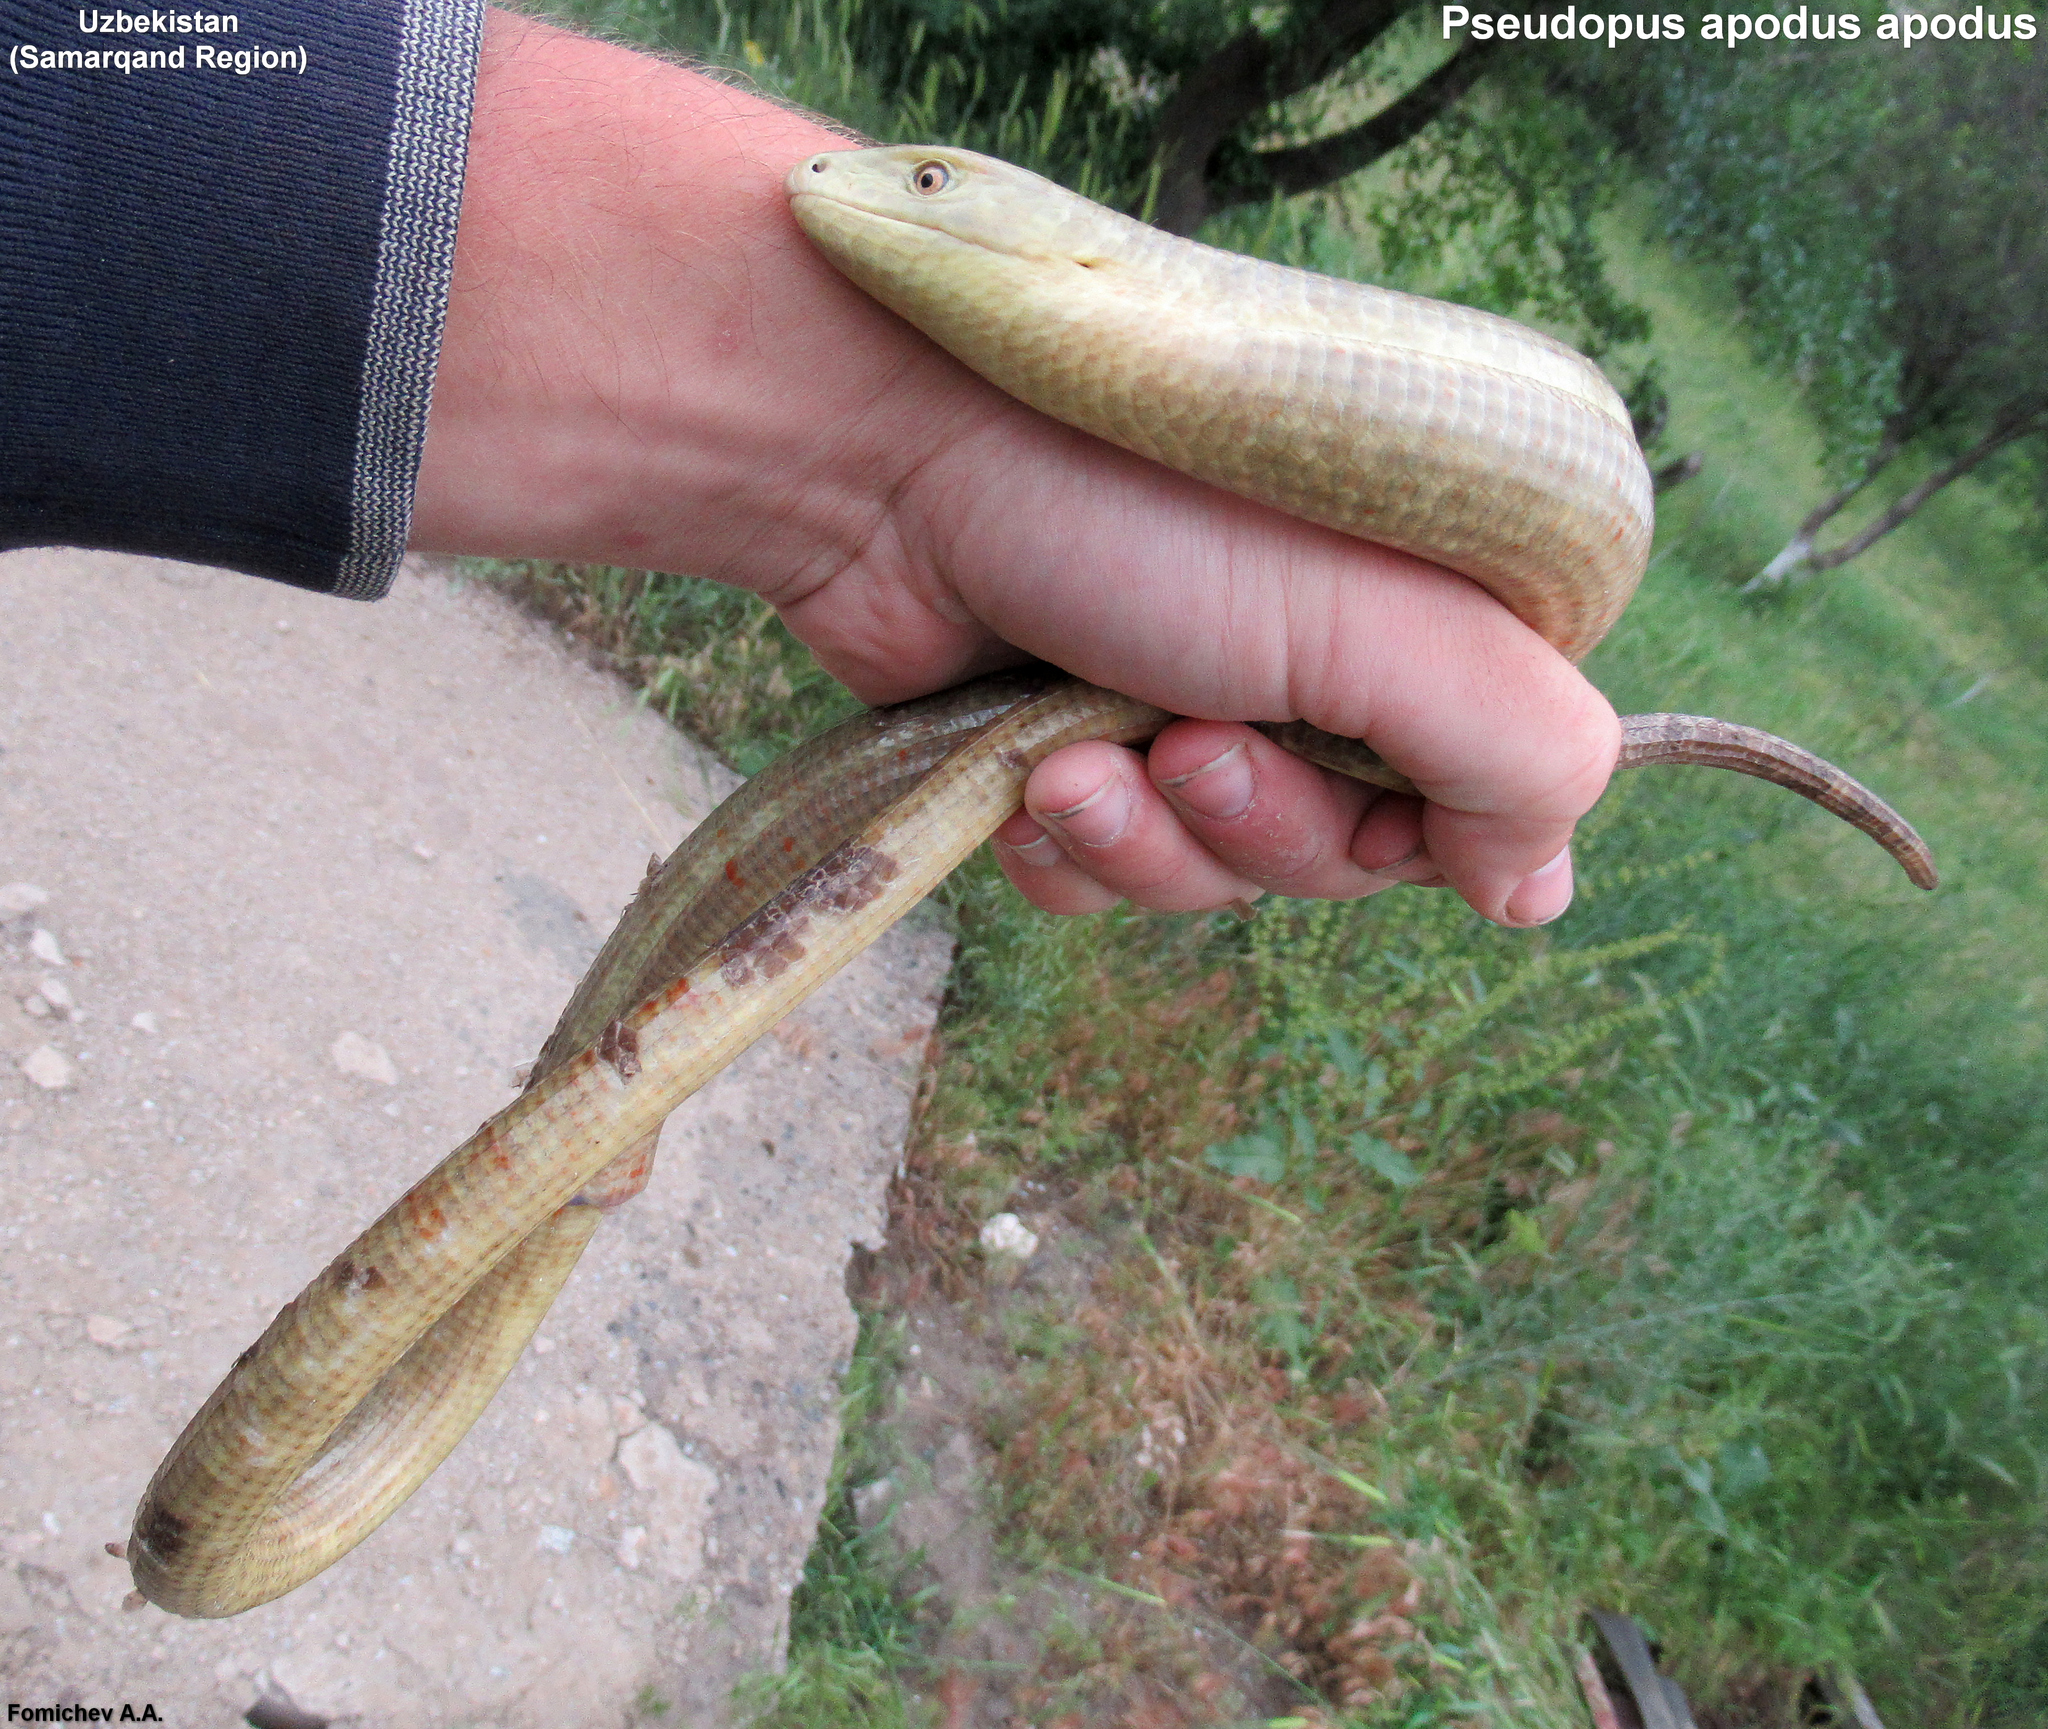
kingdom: Animalia
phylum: Chordata
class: Squamata
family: Anguidae
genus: Pseudopus
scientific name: Pseudopus apodus
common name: European glass lizard
